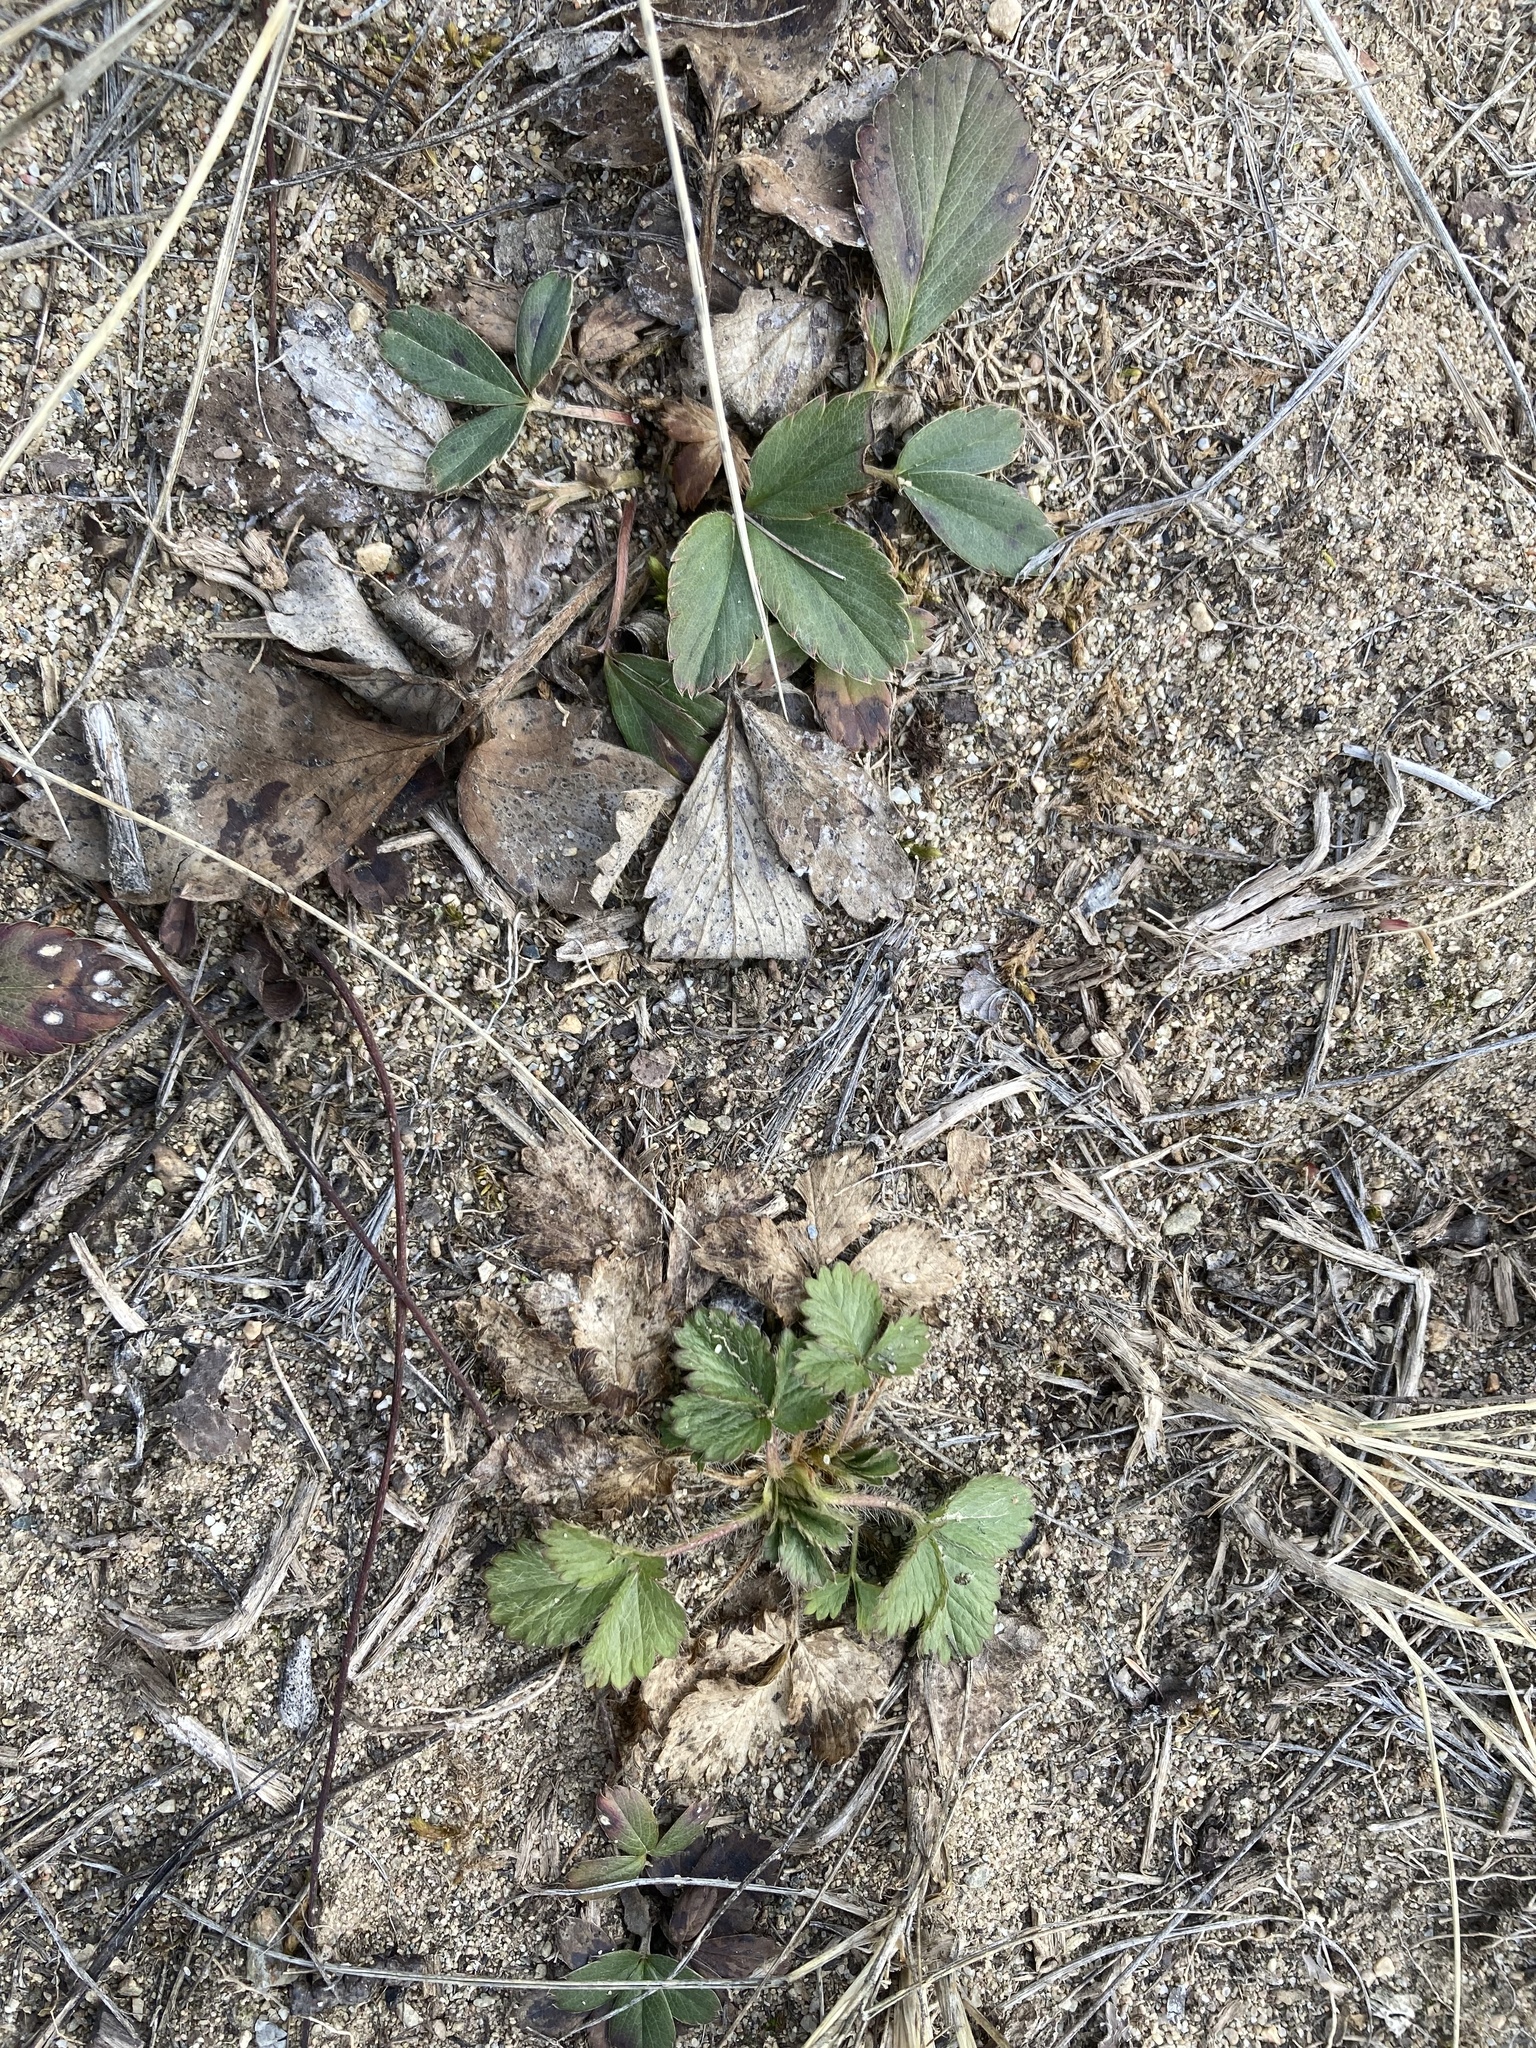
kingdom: Plantae
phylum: Tracheophyta
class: Magnoliopsida
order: Rosales
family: Rosaceae
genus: Fragaria
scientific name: Fragaria virginiana
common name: Thickleaved wild strawberry
